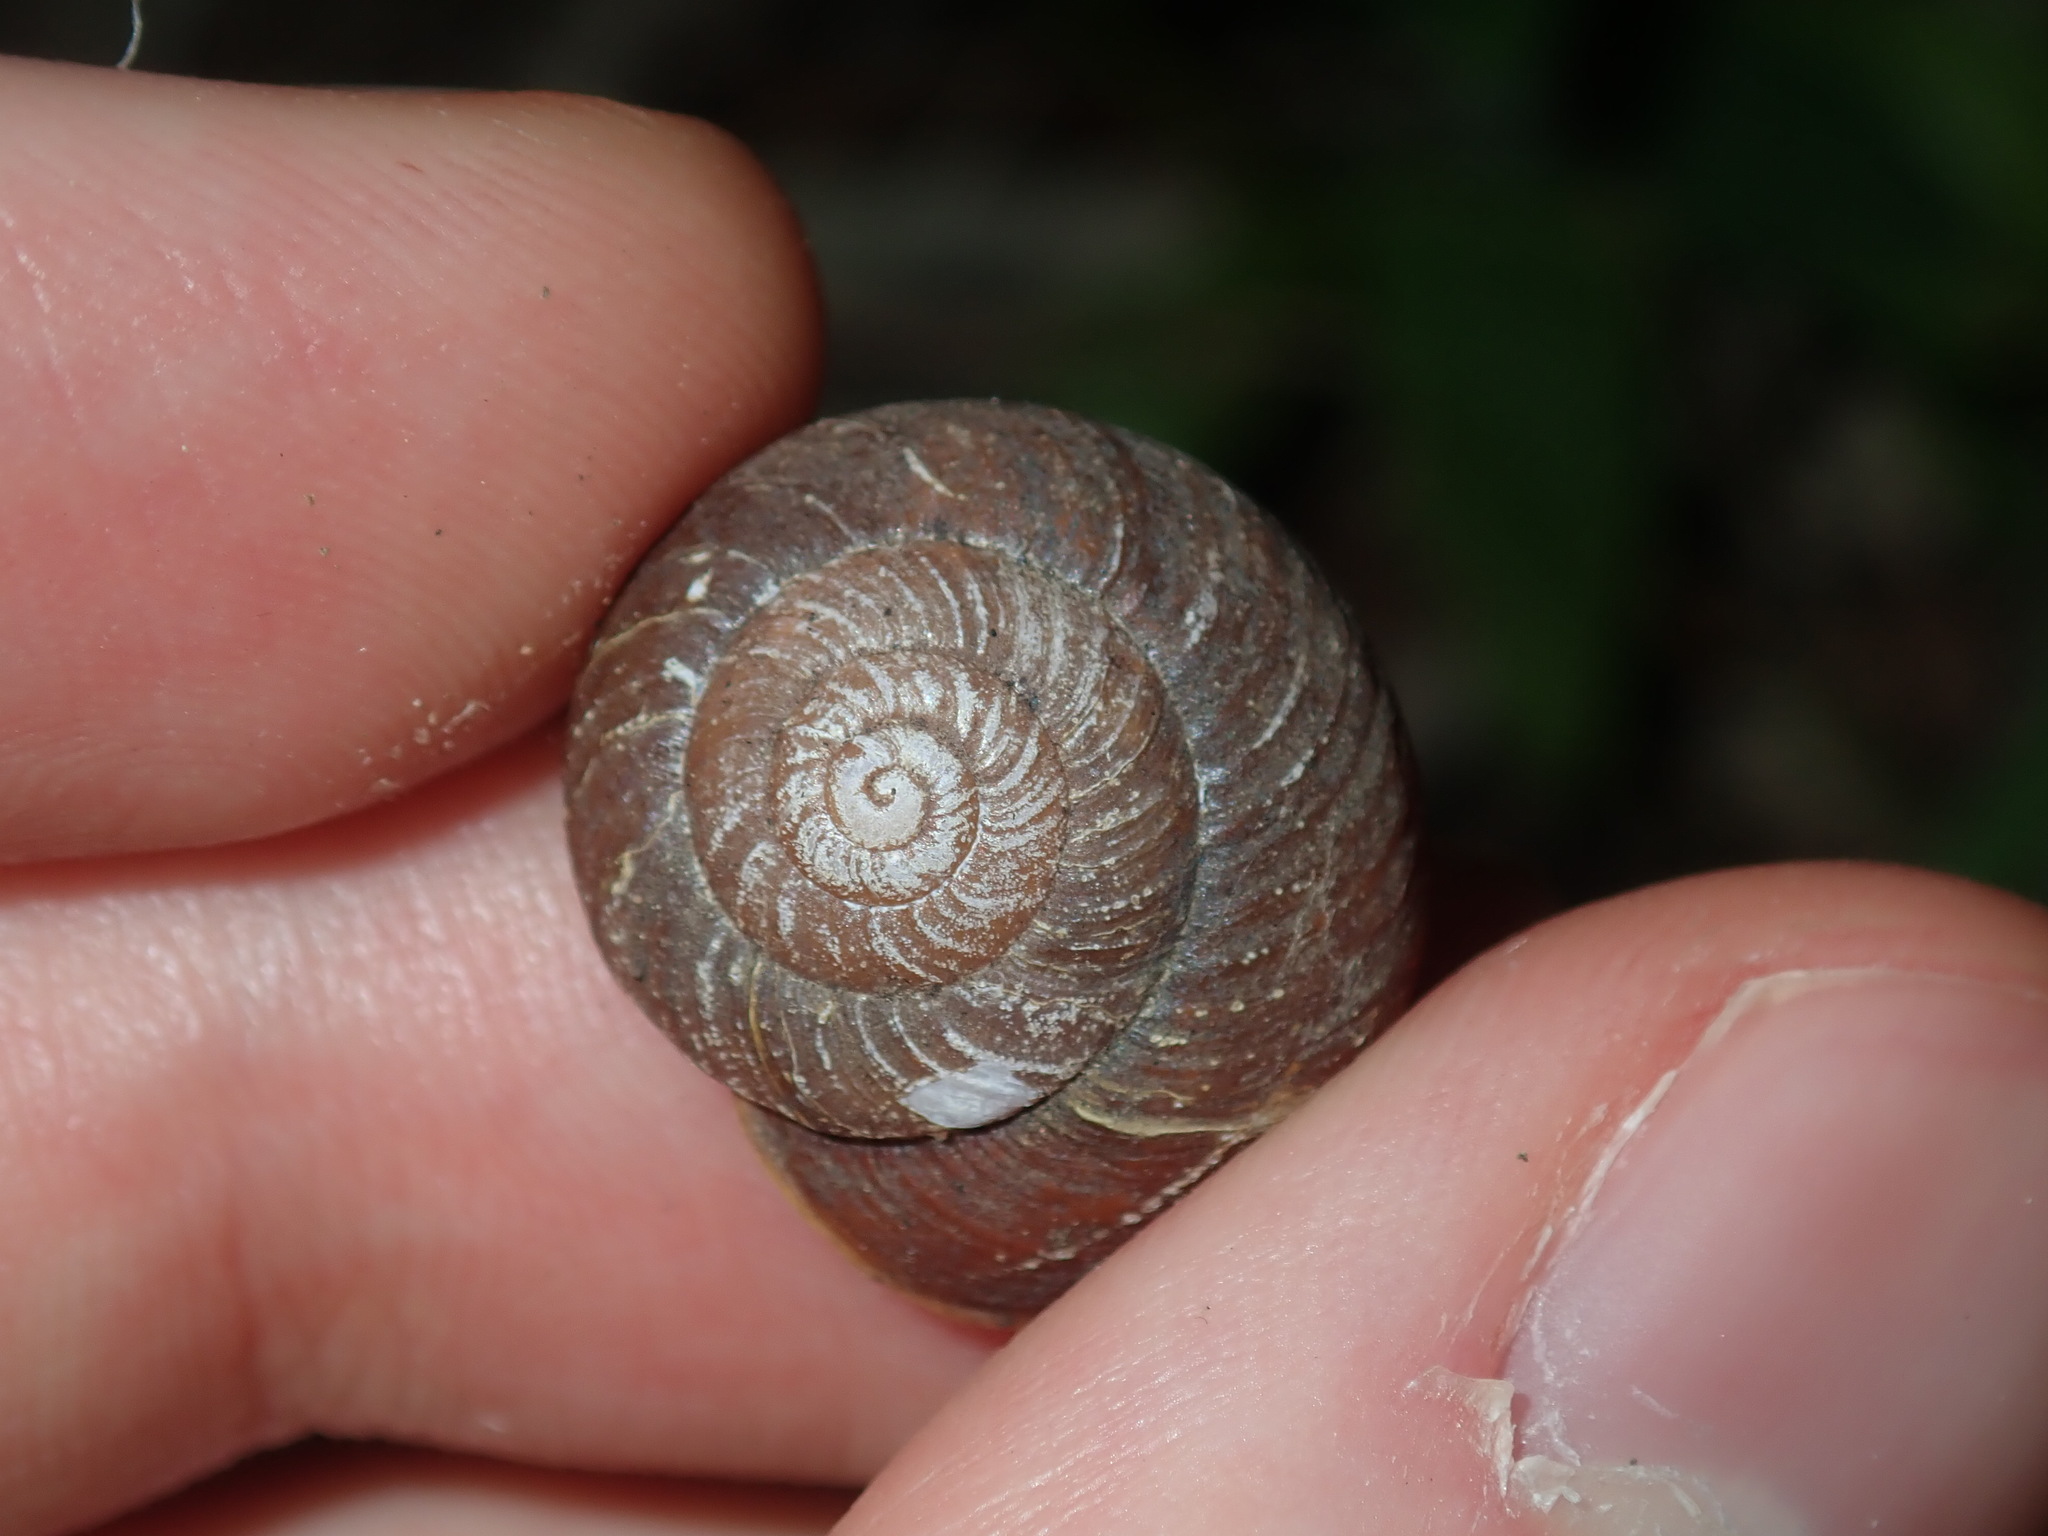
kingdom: Animalia
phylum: Mollusca
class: Gastropoda
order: Stylommatophora
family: Camaenidae
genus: Sauroconcha
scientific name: Sauroconcha sheai
